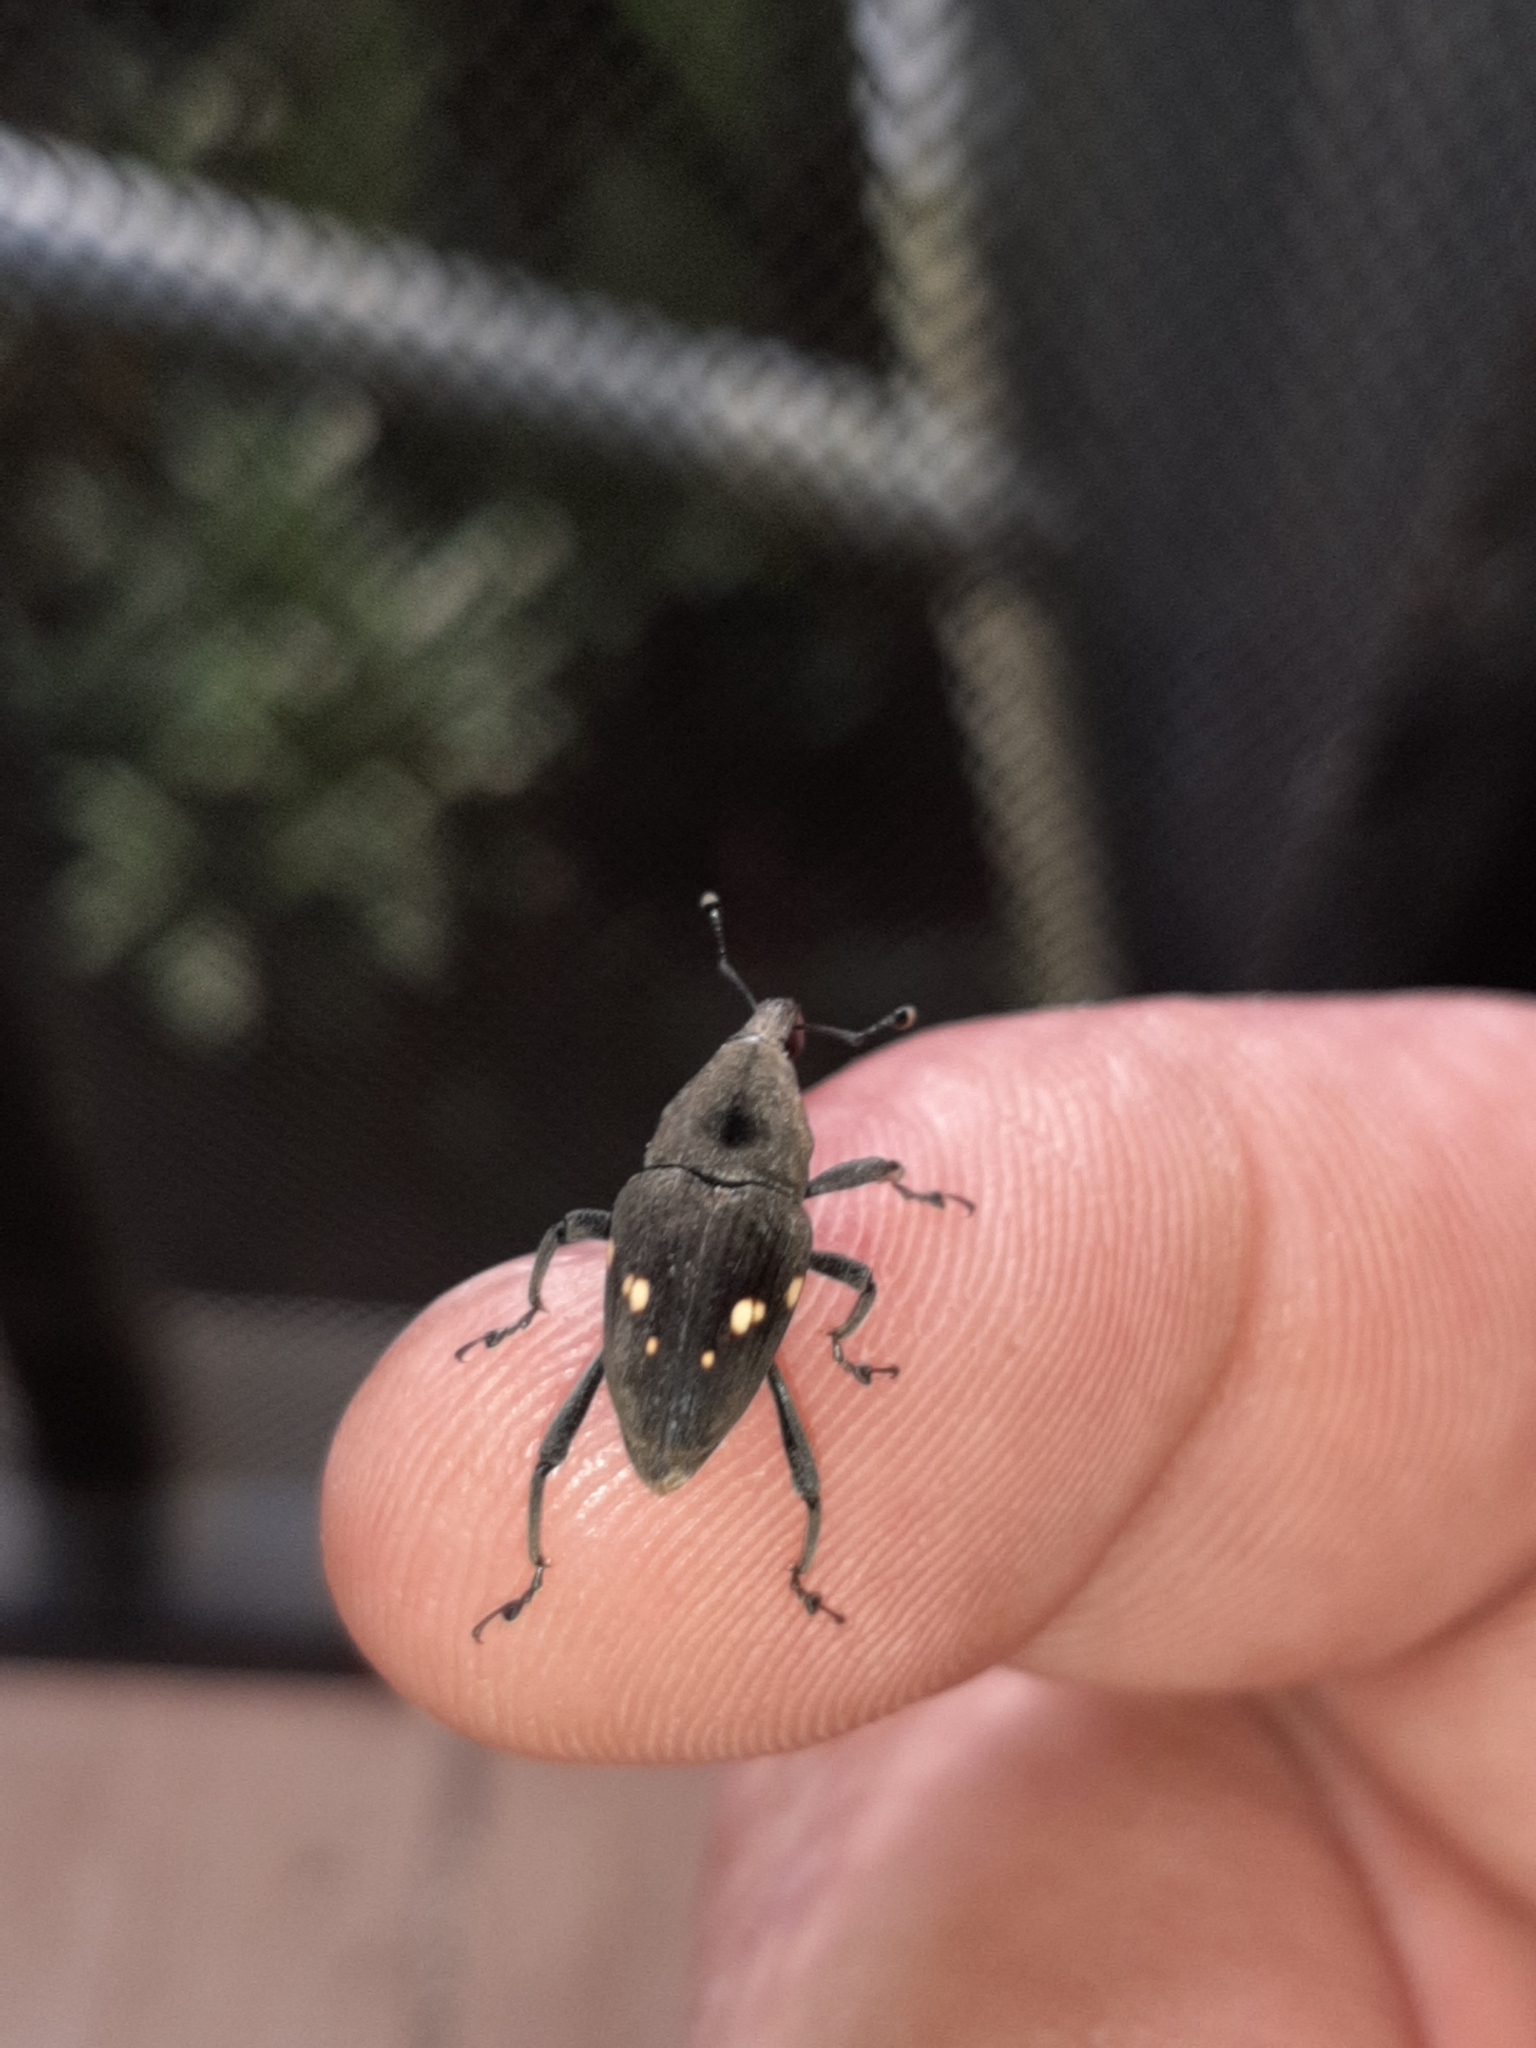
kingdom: Animalia
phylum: Arthropoda
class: Insecta
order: Coleoptera
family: Dryophthoridae
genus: Cactophagus
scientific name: Cactophagus
